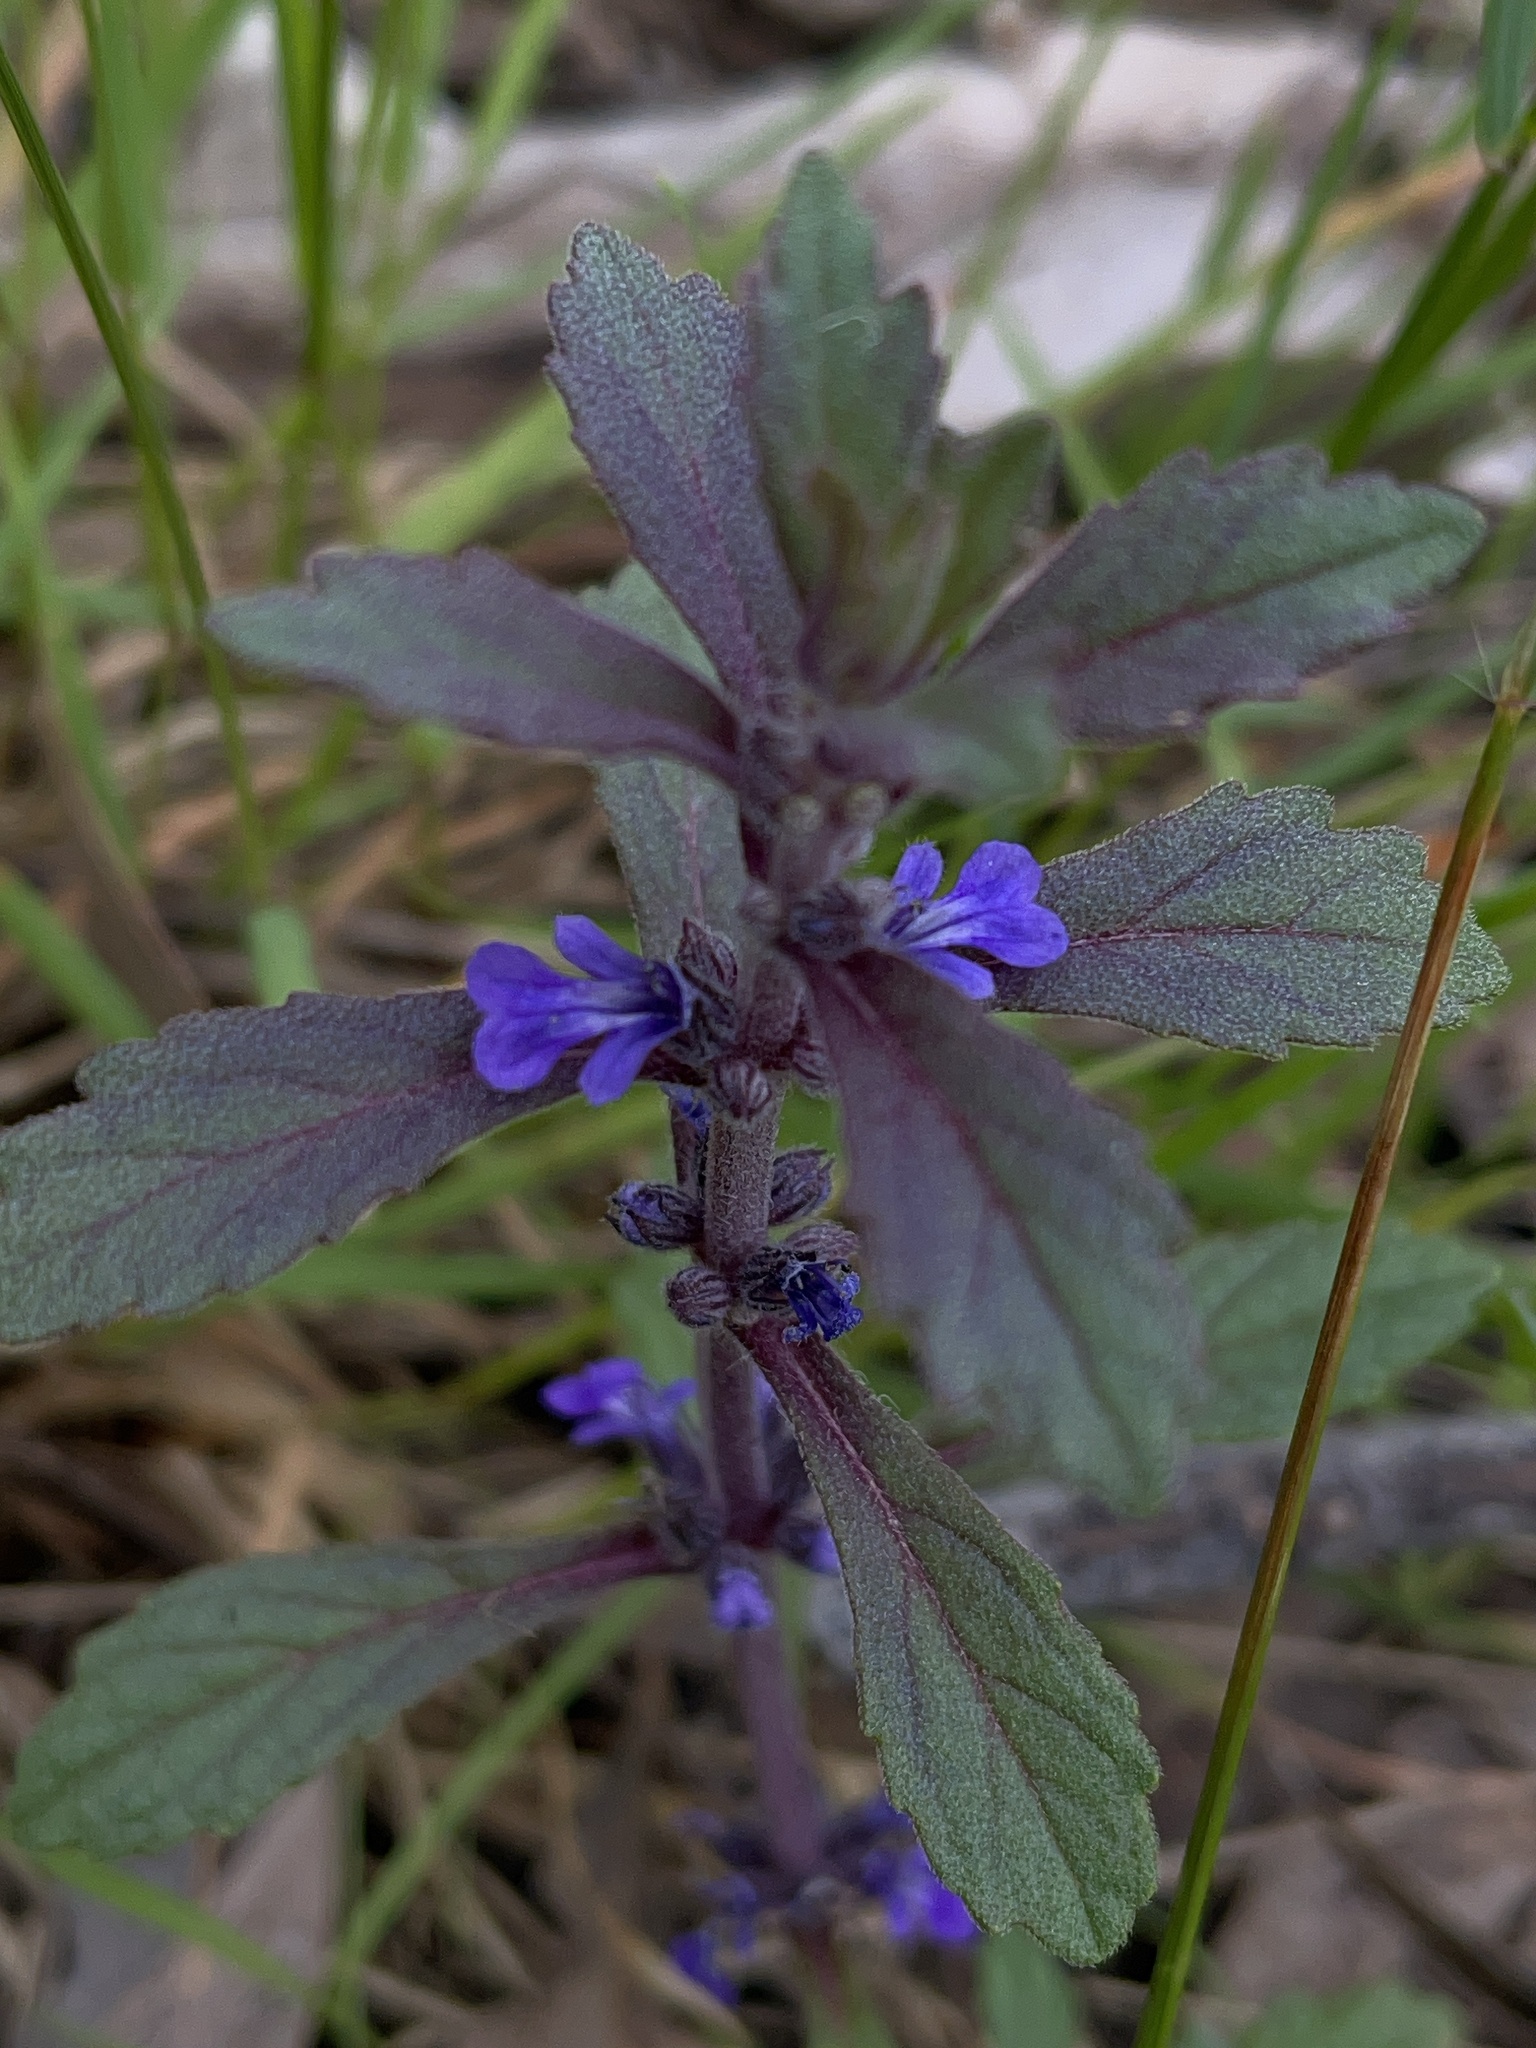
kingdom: Plantae
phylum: Tracheophyta
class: Magnoliopsida
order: Lamiales
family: Lamiaceae
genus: Ajuga
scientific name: Ajuga australis
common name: Australian bugle
